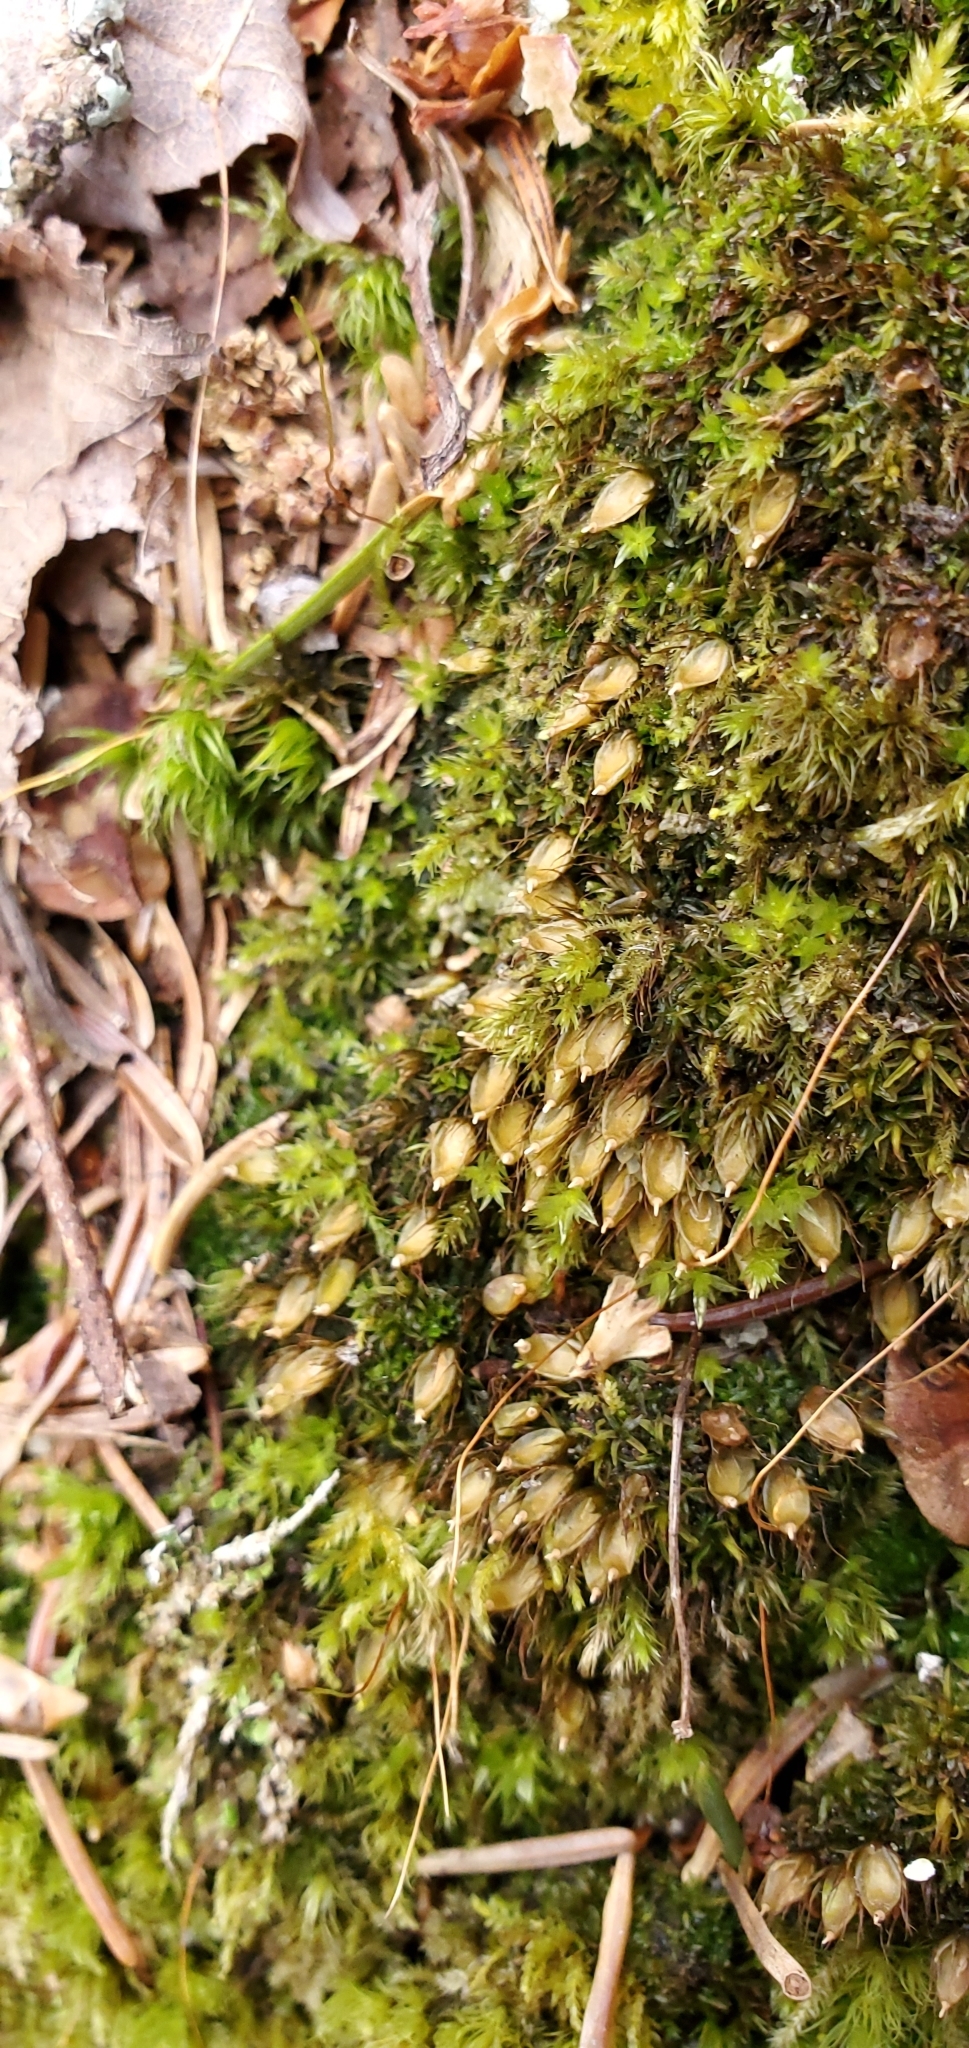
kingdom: Plantae
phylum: Bryophyta
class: Bryopsida
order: Diphysciales
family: Diphysciaceae
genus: Diphyscium
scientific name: Diphyscium foliosum
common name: Nut moss
